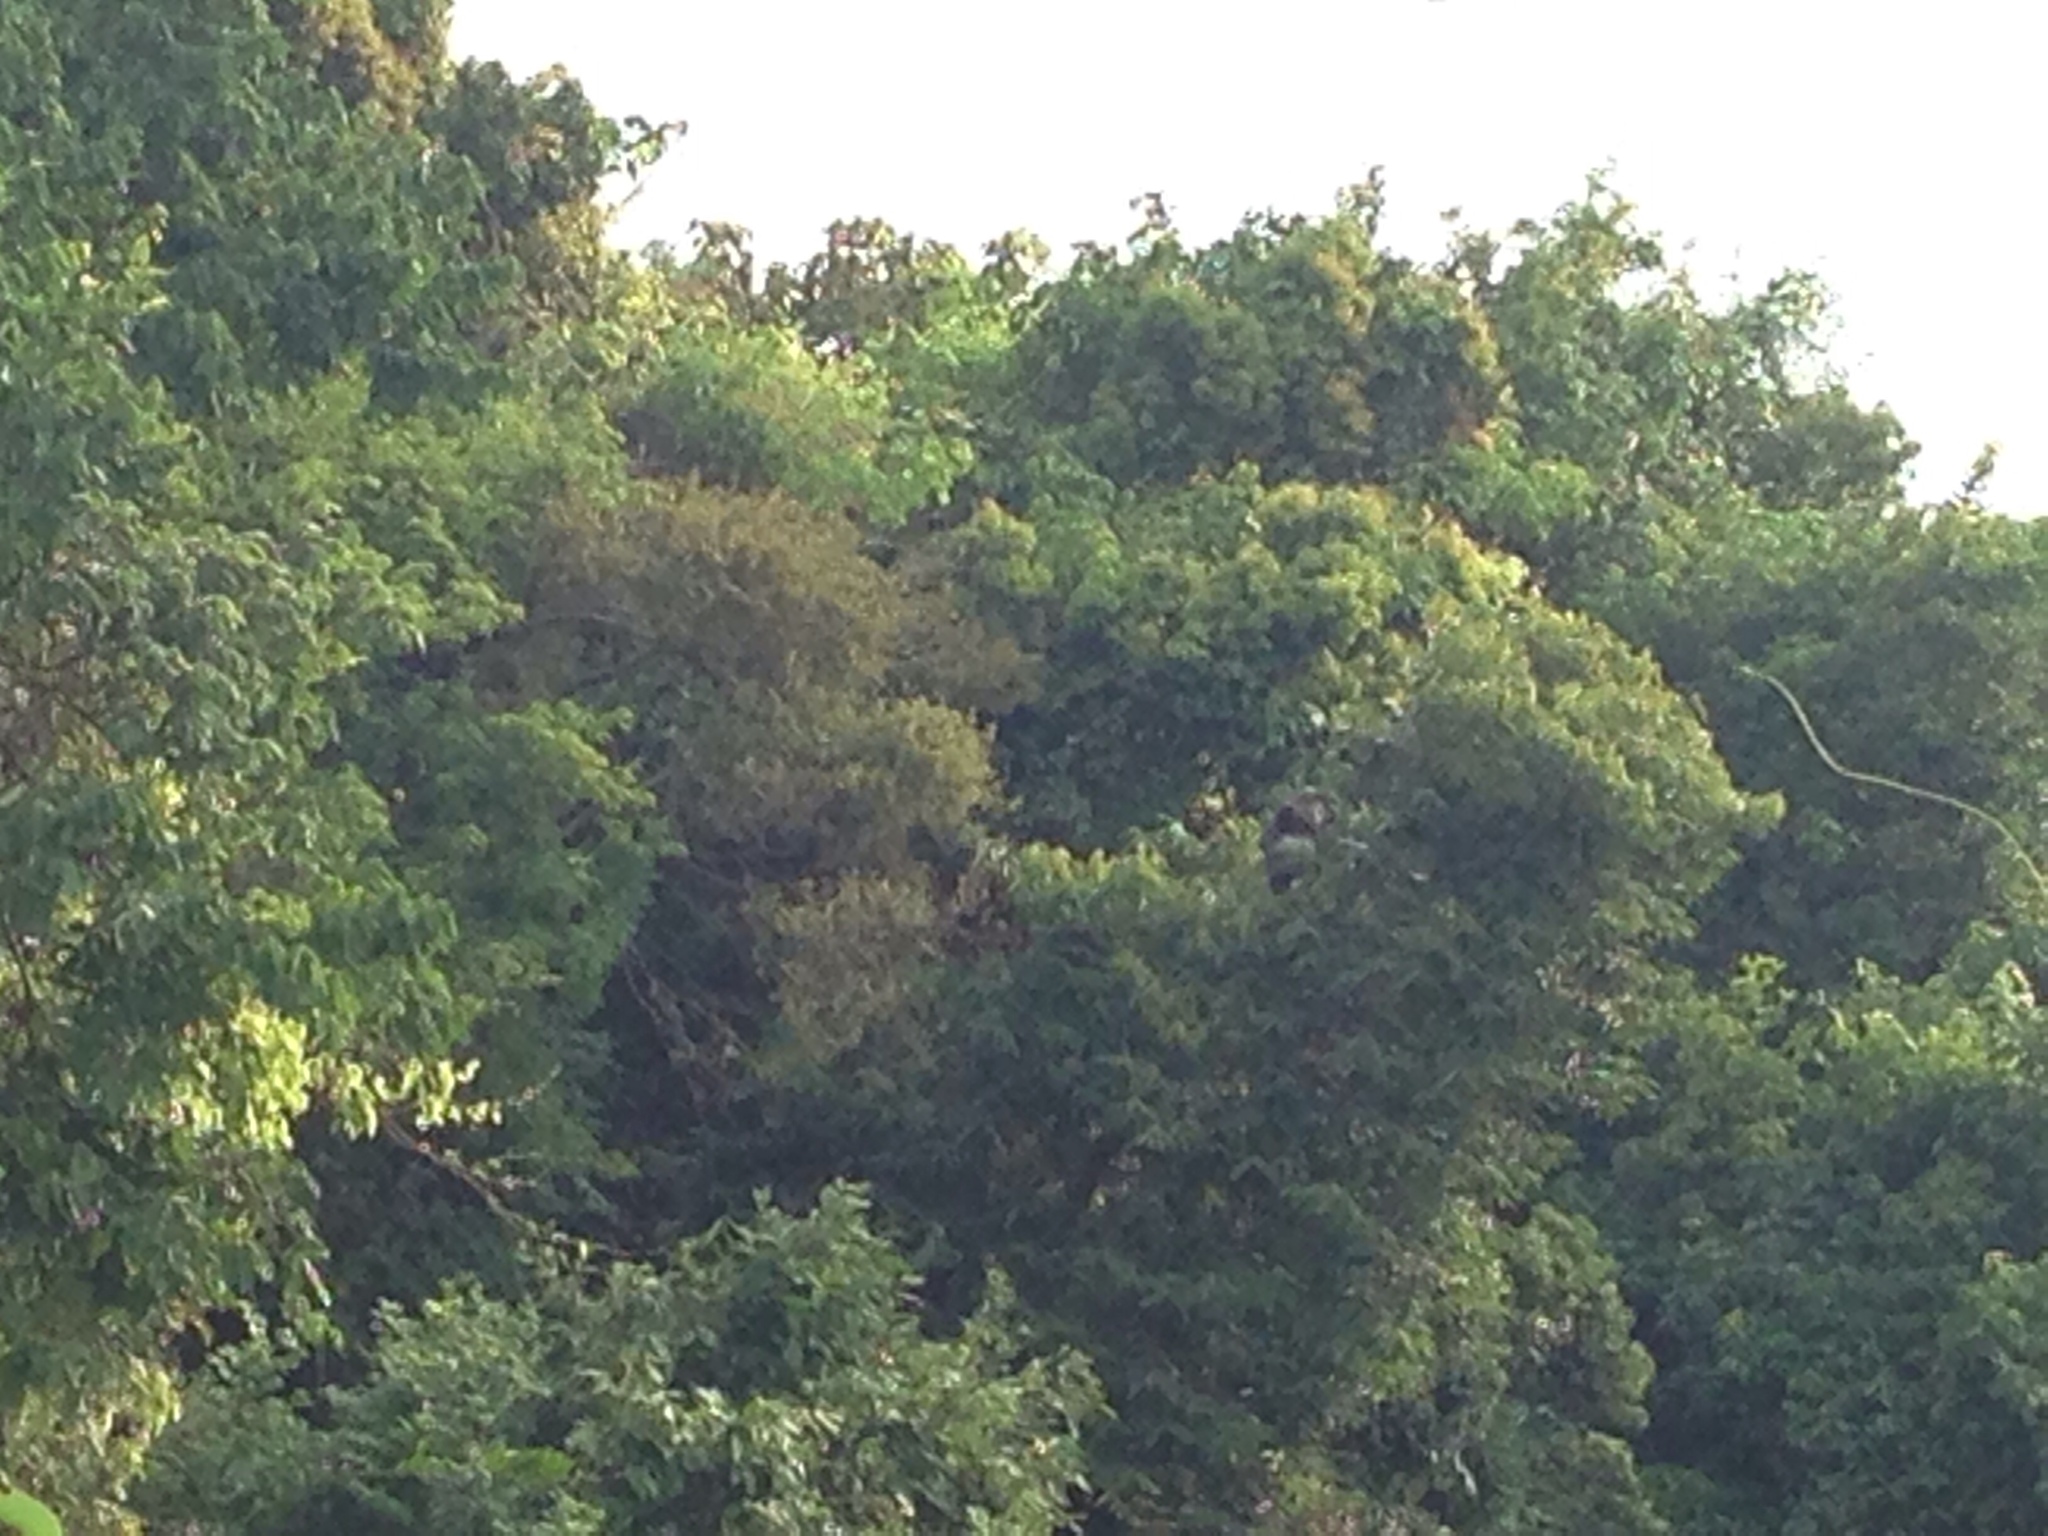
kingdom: Animalia
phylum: Chordata
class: Mammalia
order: Primates
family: Cercopithecidae
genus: Pygathrix
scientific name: Pygathrix nemaeus
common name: Red-shanked douc
